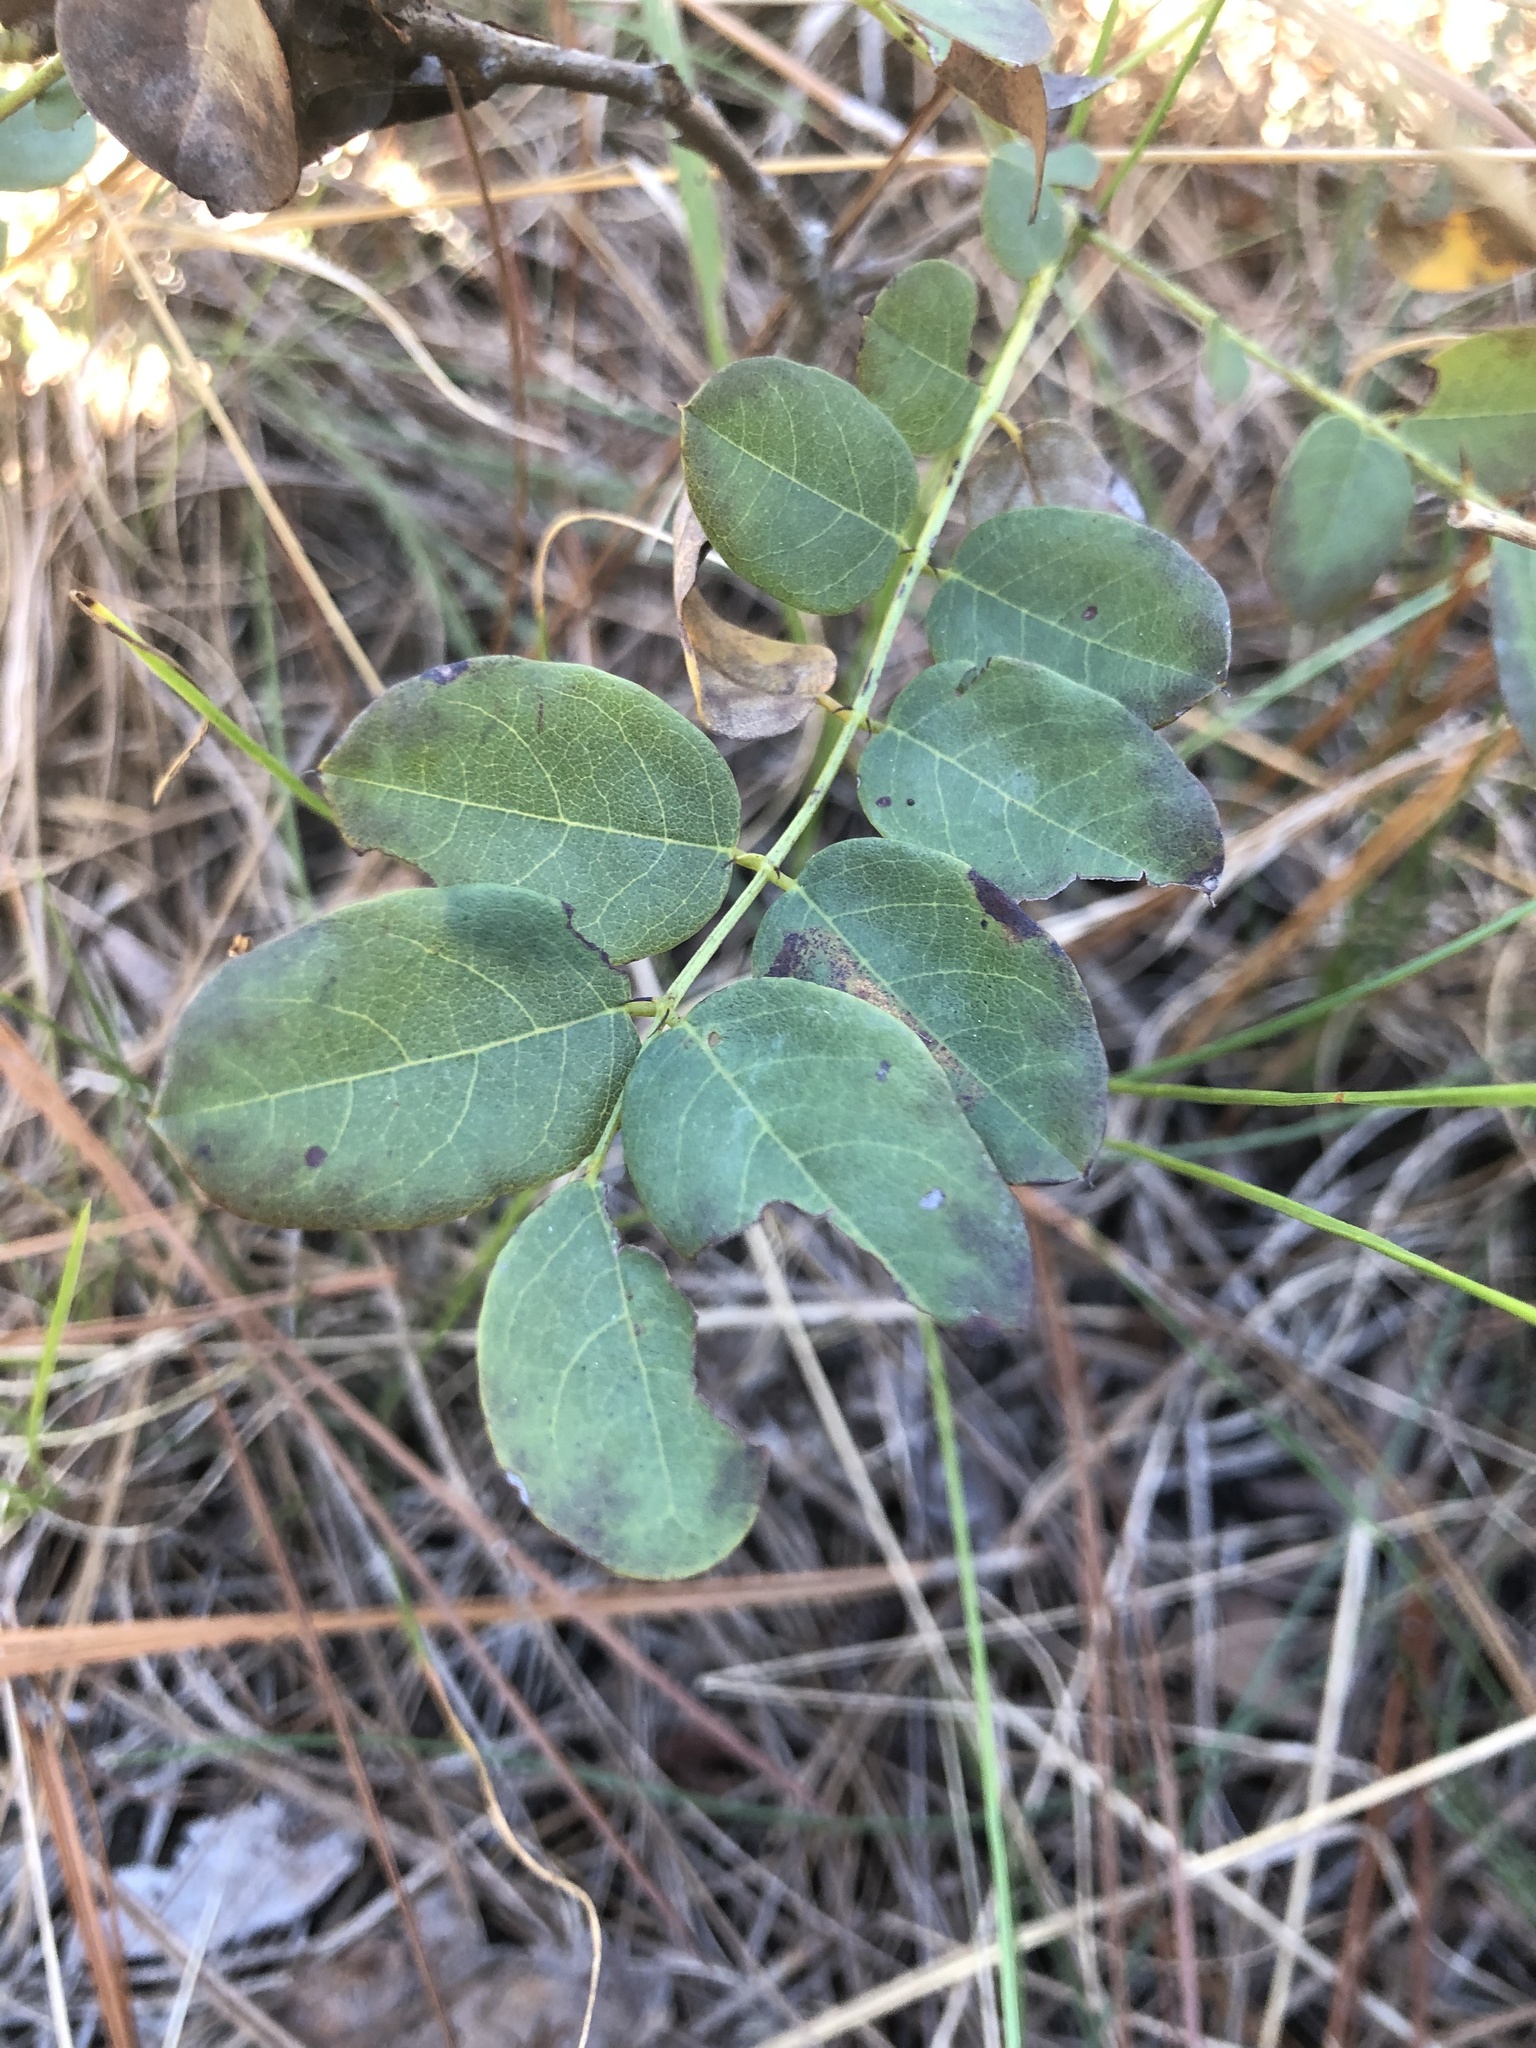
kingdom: Plantae
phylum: Tracheophyta
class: Magnoliopsida
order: Fabales
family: Fabaceae
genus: Robinia
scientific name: Robinia hispida
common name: Bristly locust
